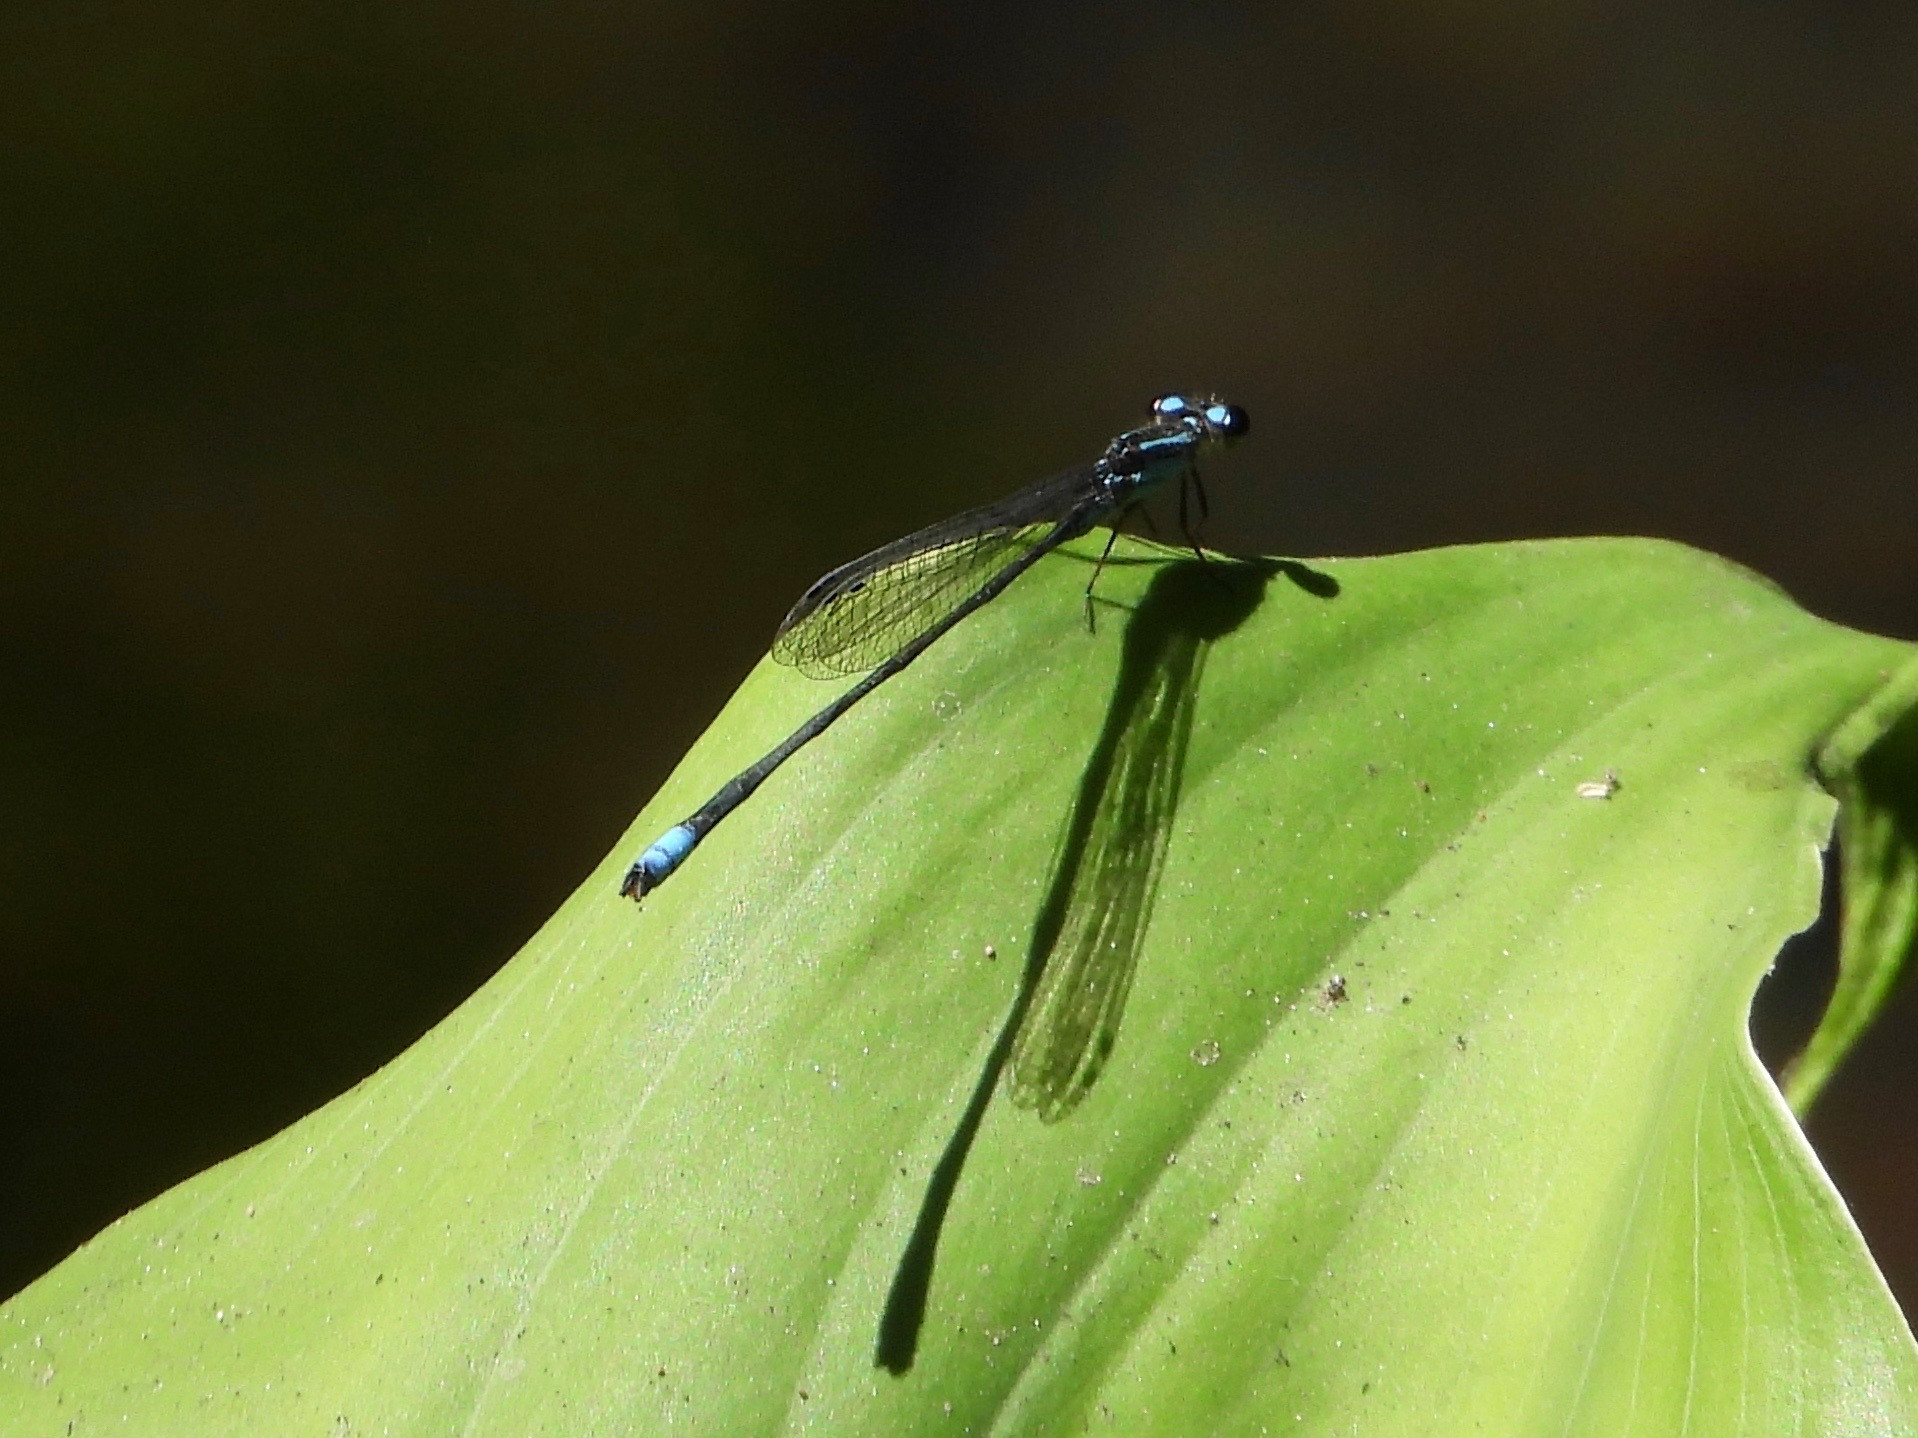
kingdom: Animalia
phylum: Arthropoda
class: Insecta
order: Odonata
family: Coenagrionidae
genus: Acanthagrion
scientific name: Acanthagrion quadratum
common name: Mexican wedgetail
